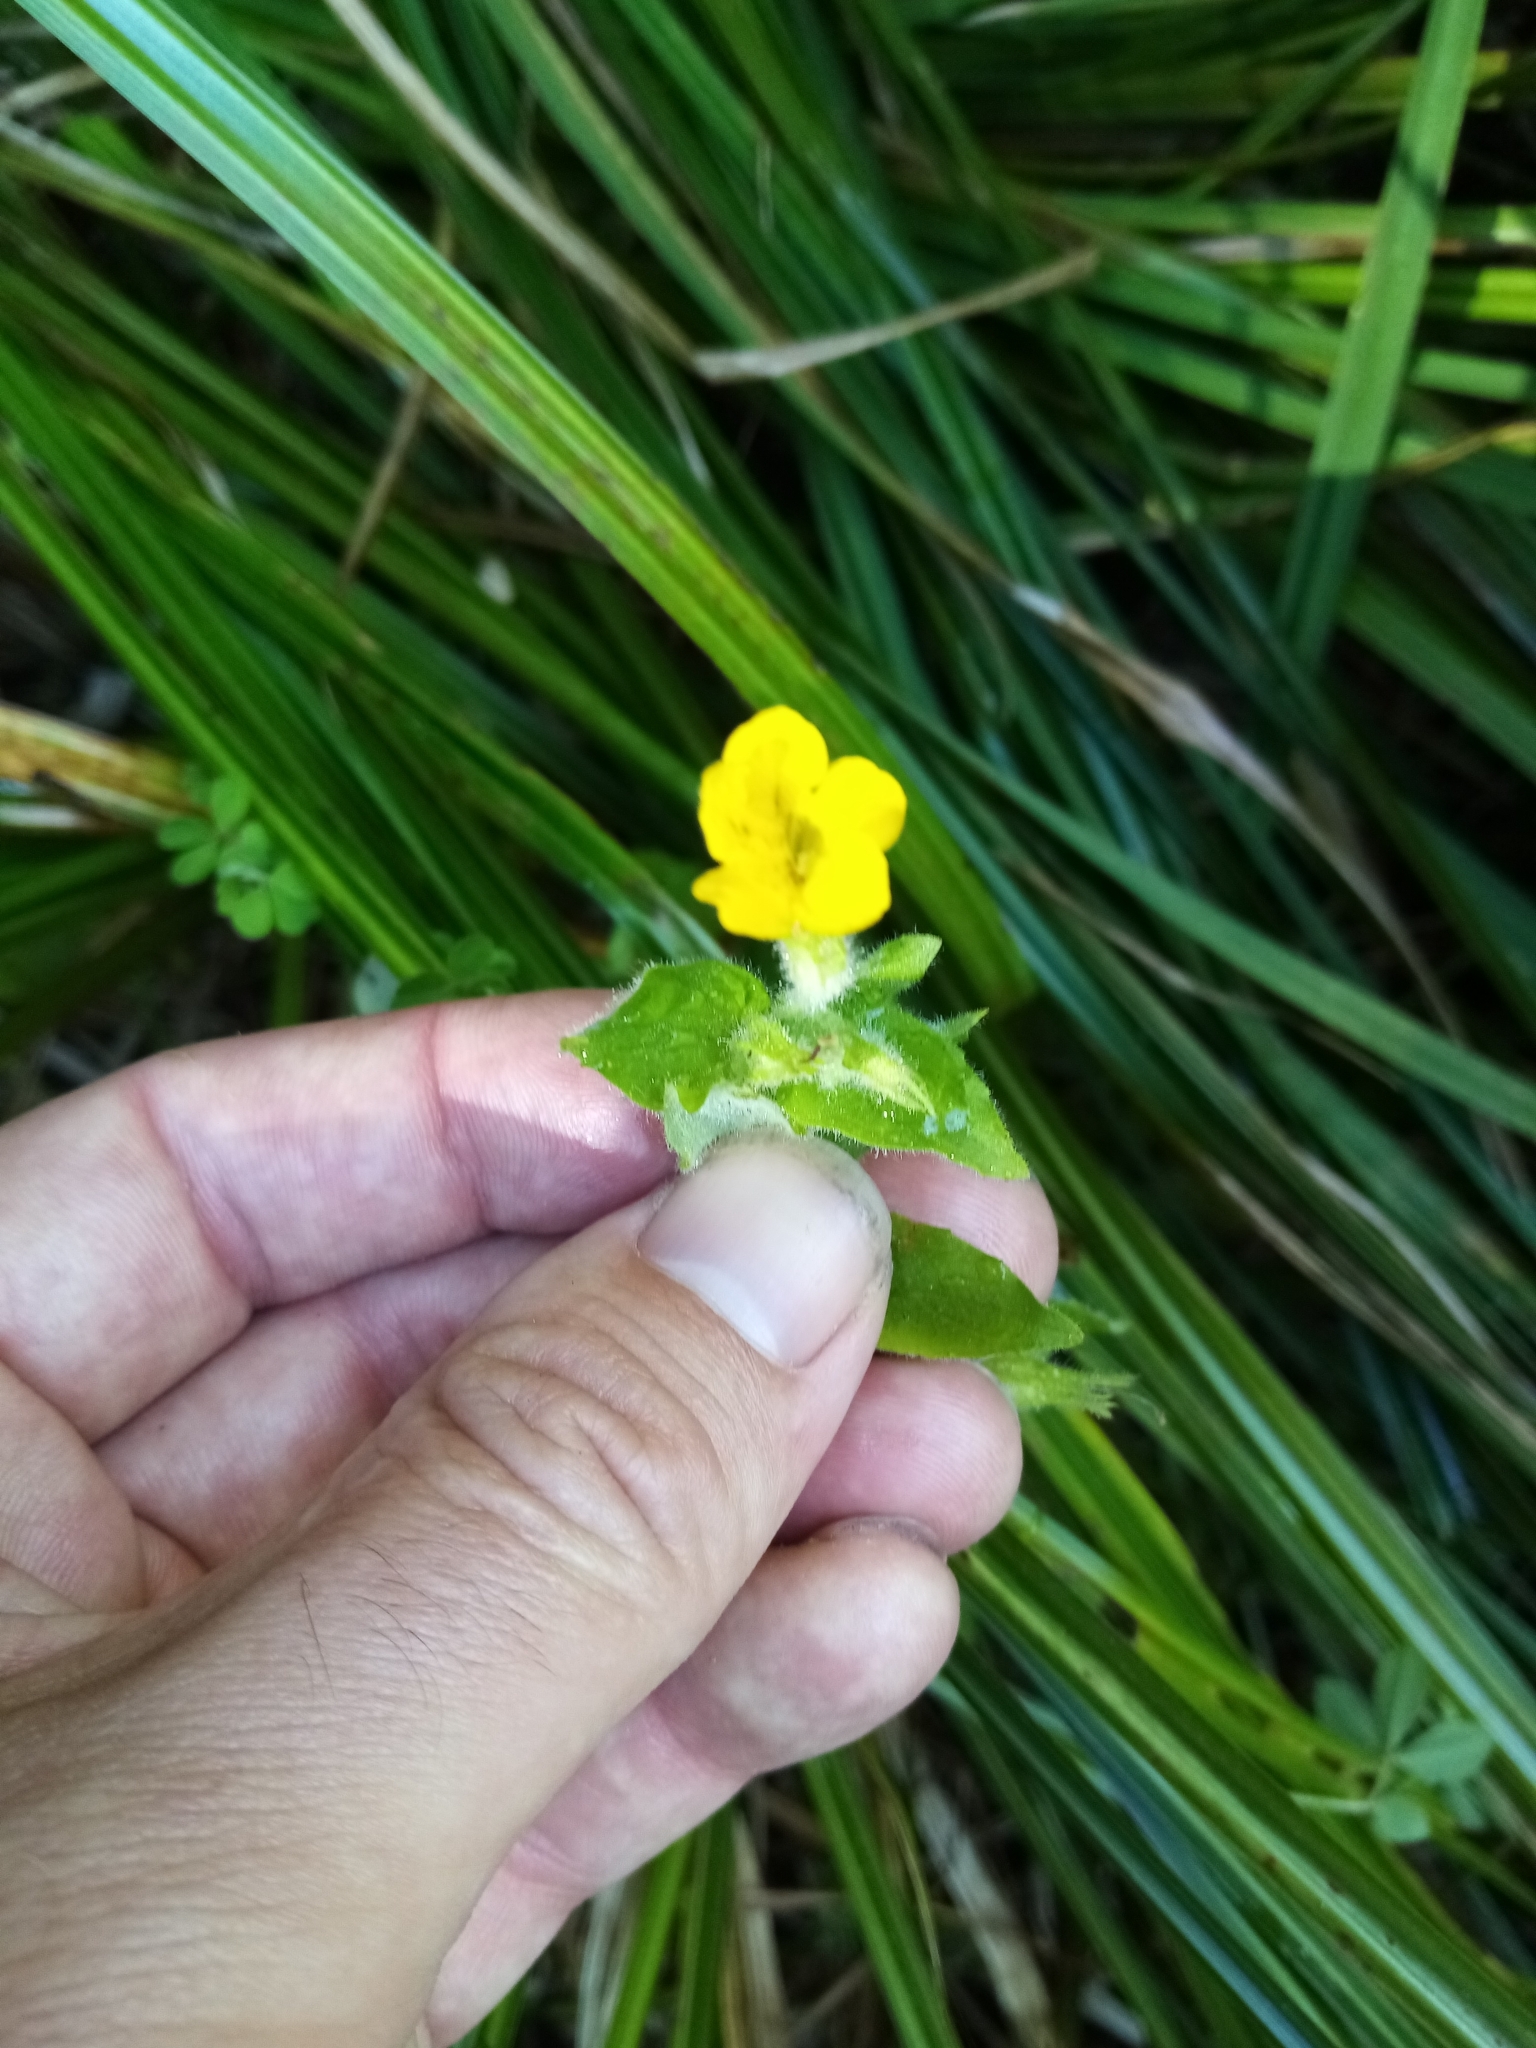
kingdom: Plantae
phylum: Tracheophyta
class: Magnoliopsida
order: Lamiales
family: Phrymaceae
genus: Erythranthe
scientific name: Erythranthe moschata
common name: Muskflower
